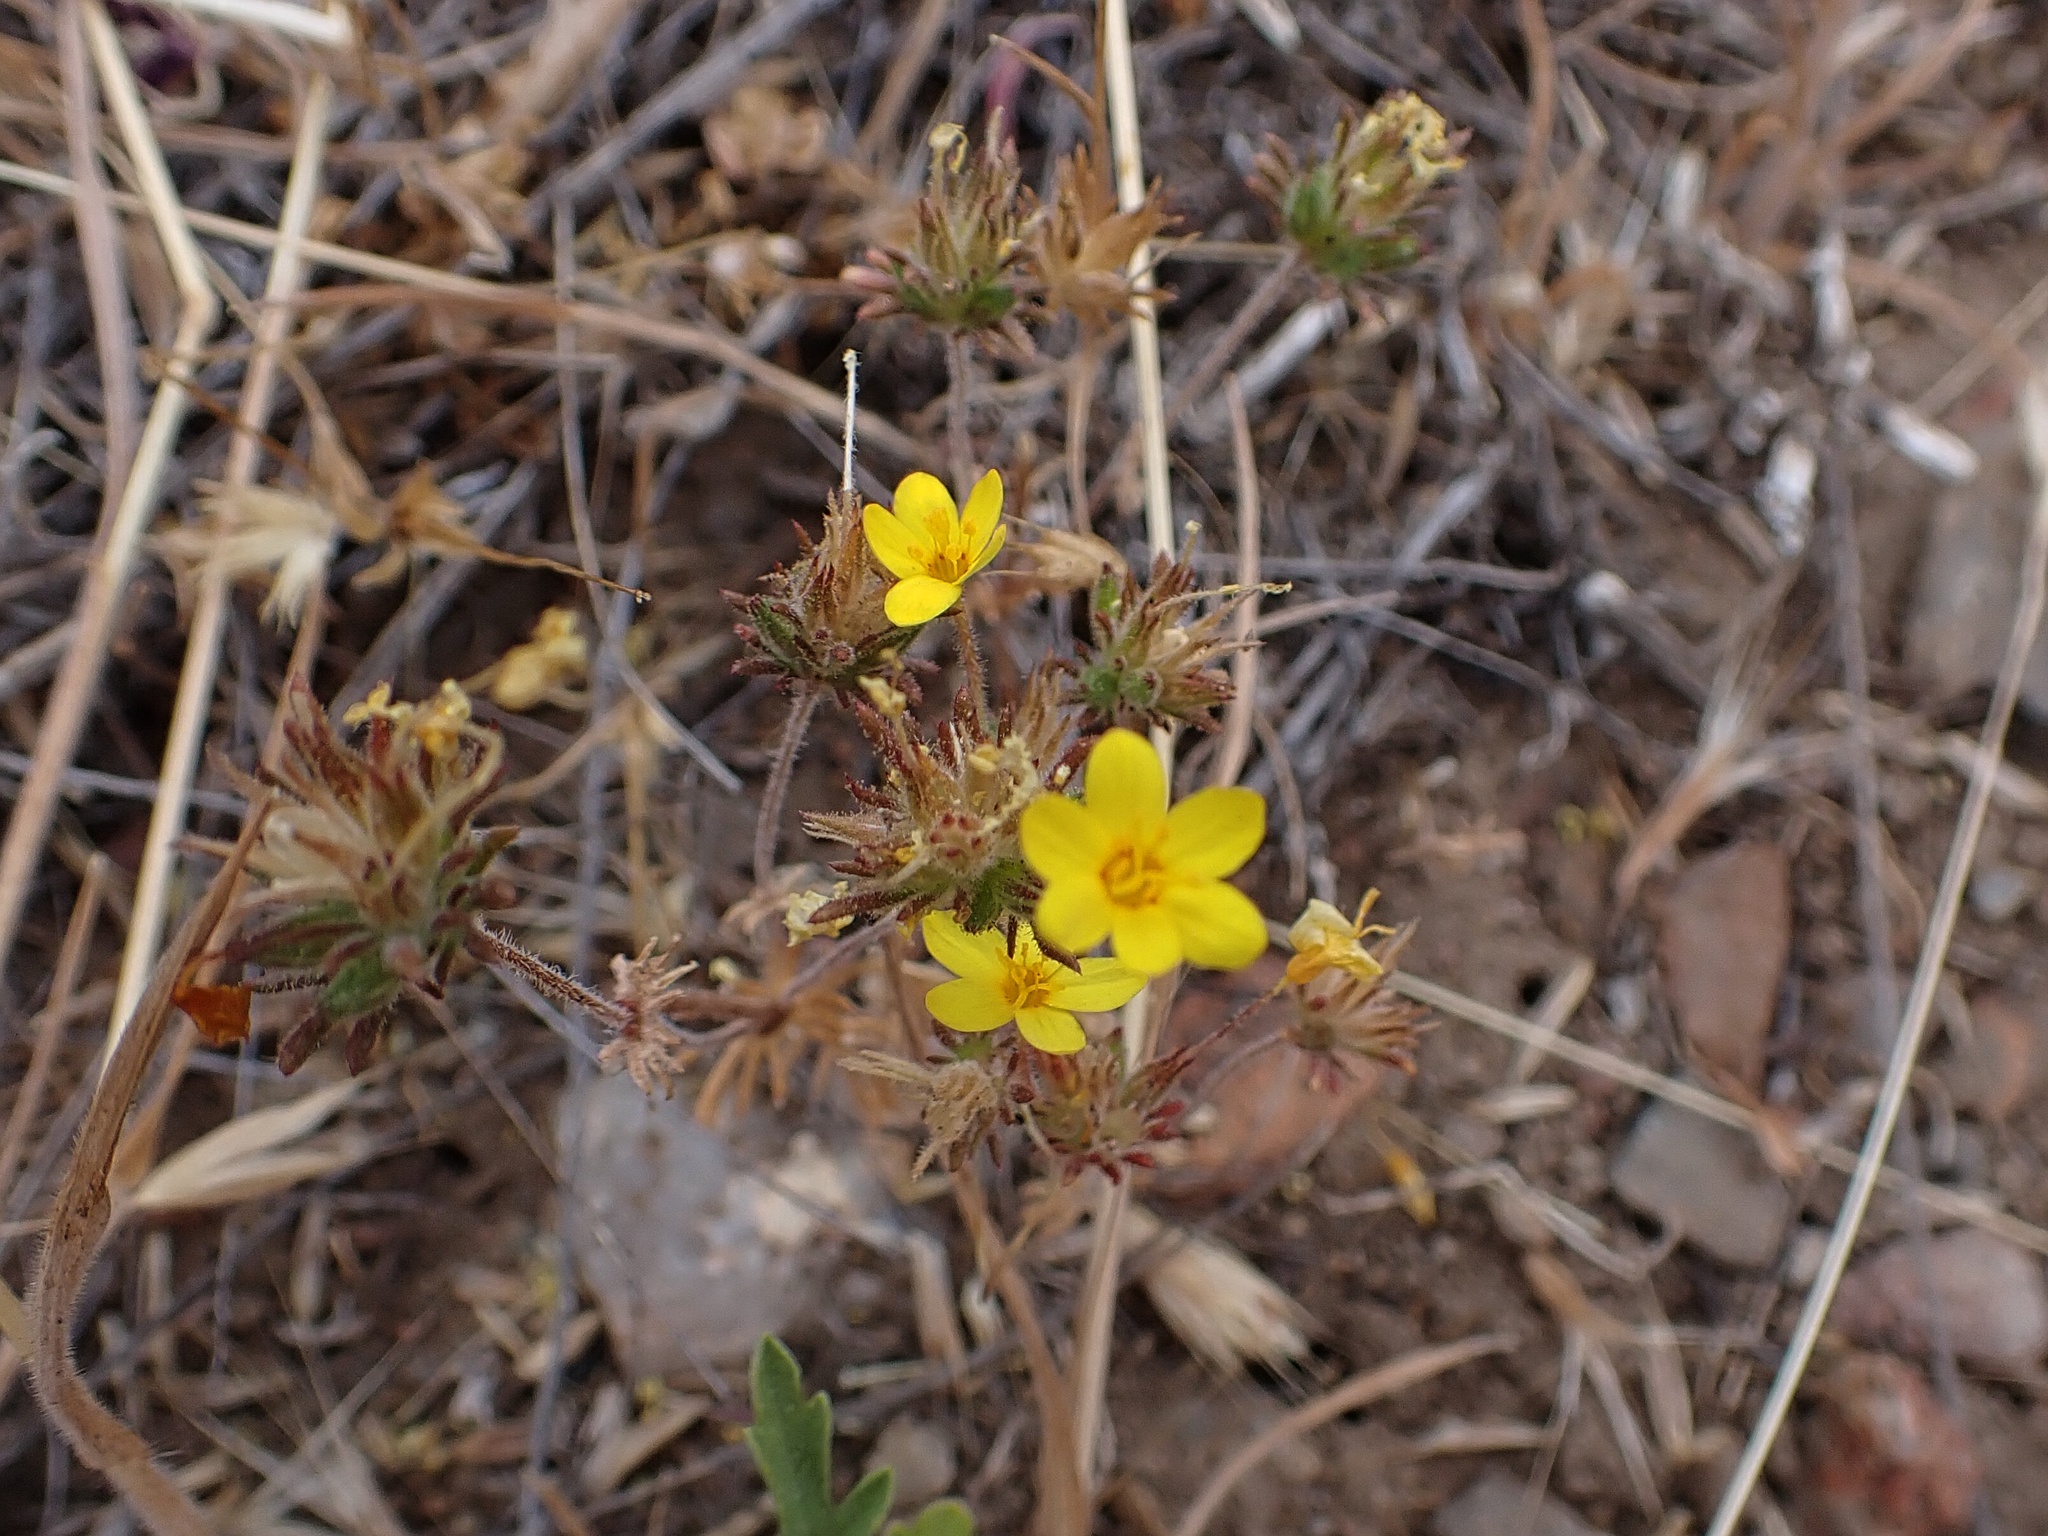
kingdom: Plantae
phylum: Tracheophyta
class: Magnoliopsida
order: Ericales
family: Polemoniaceae
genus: Leptosiphon
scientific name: Leptosiphon parviflorus
